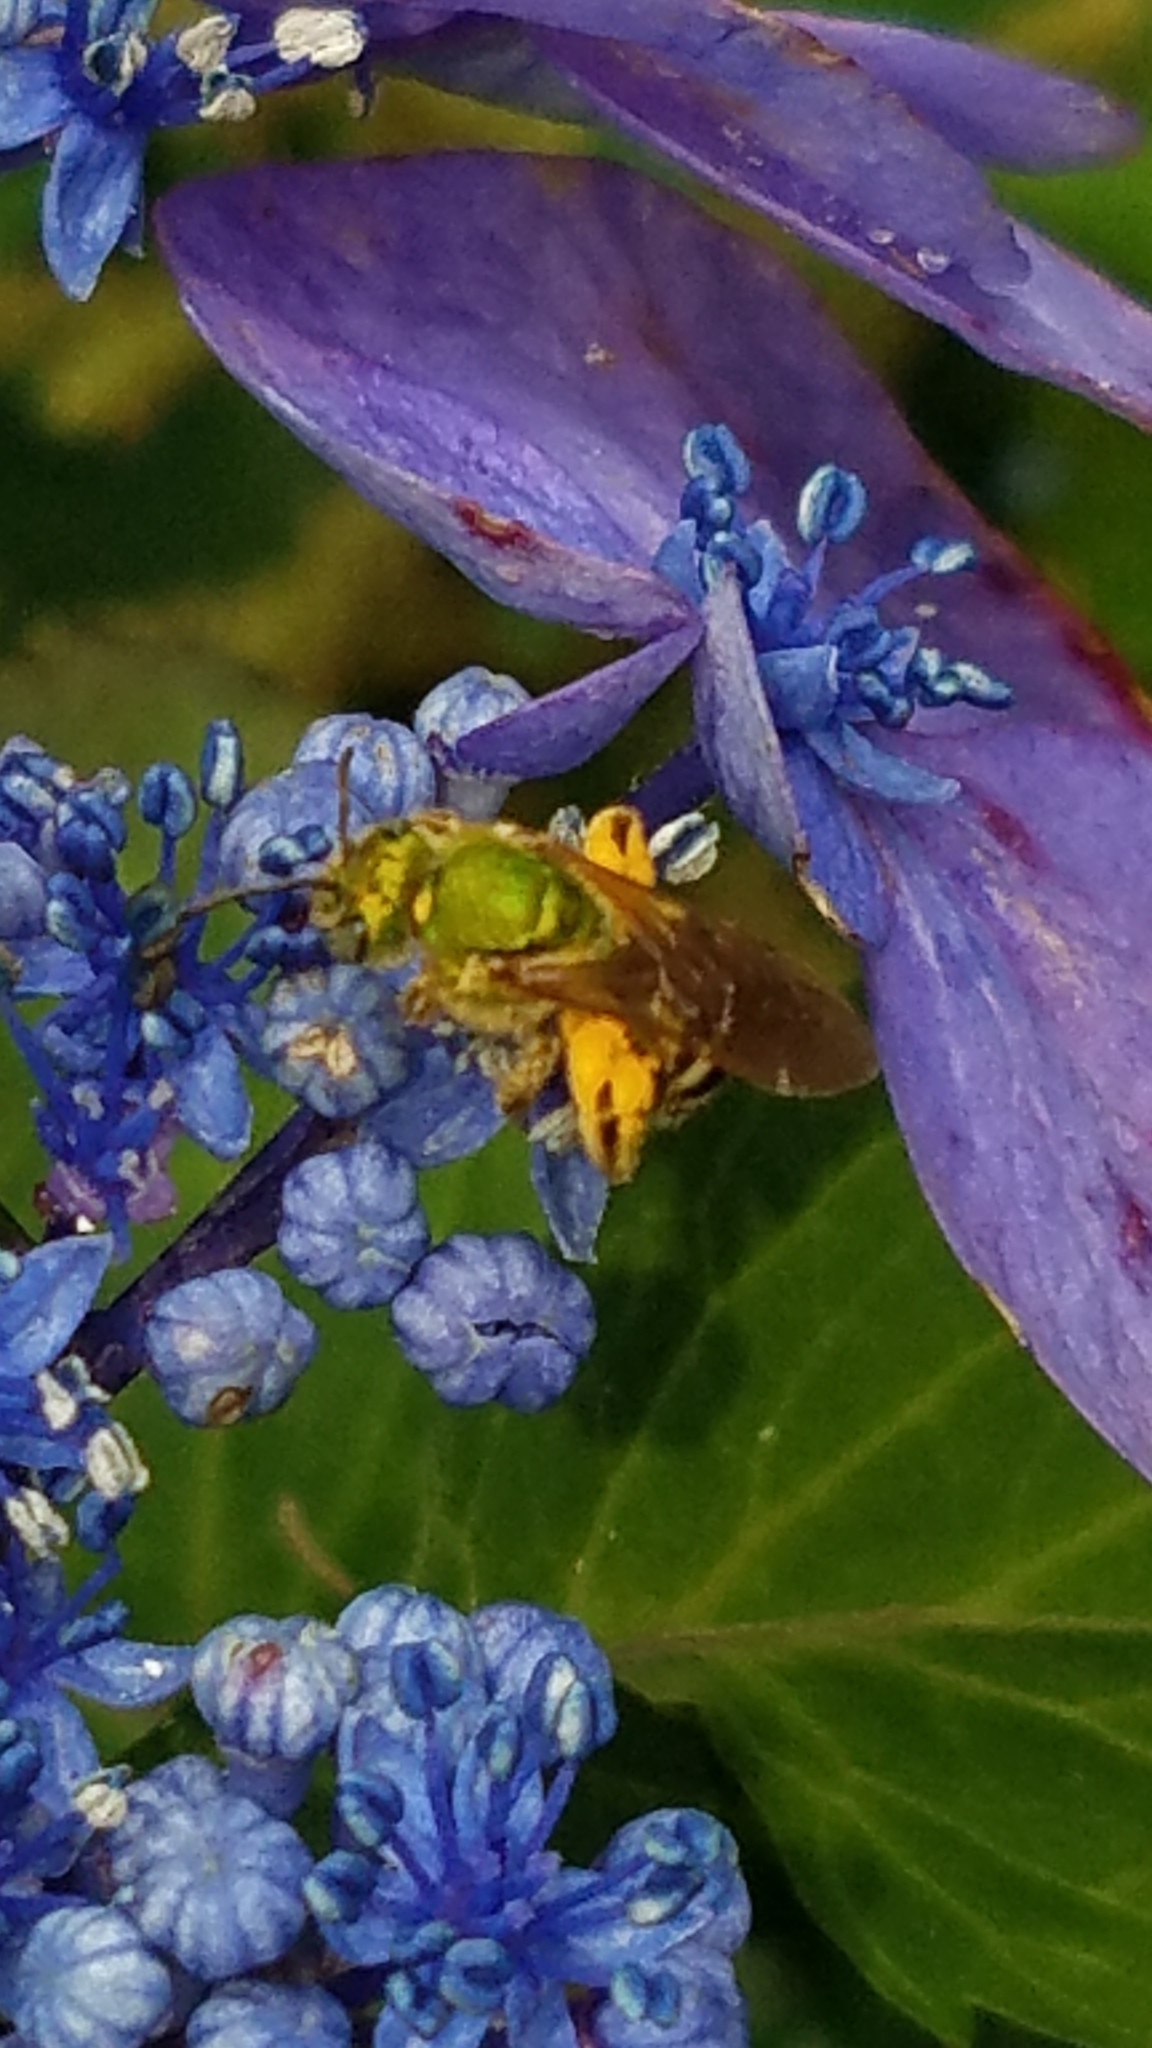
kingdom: Animalia
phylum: Arthropoda
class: Insecta
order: Hymenoptera
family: Halictidae
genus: Agapostemon
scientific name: Agapostemon virescens
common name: Bicolored striped sweat bee
